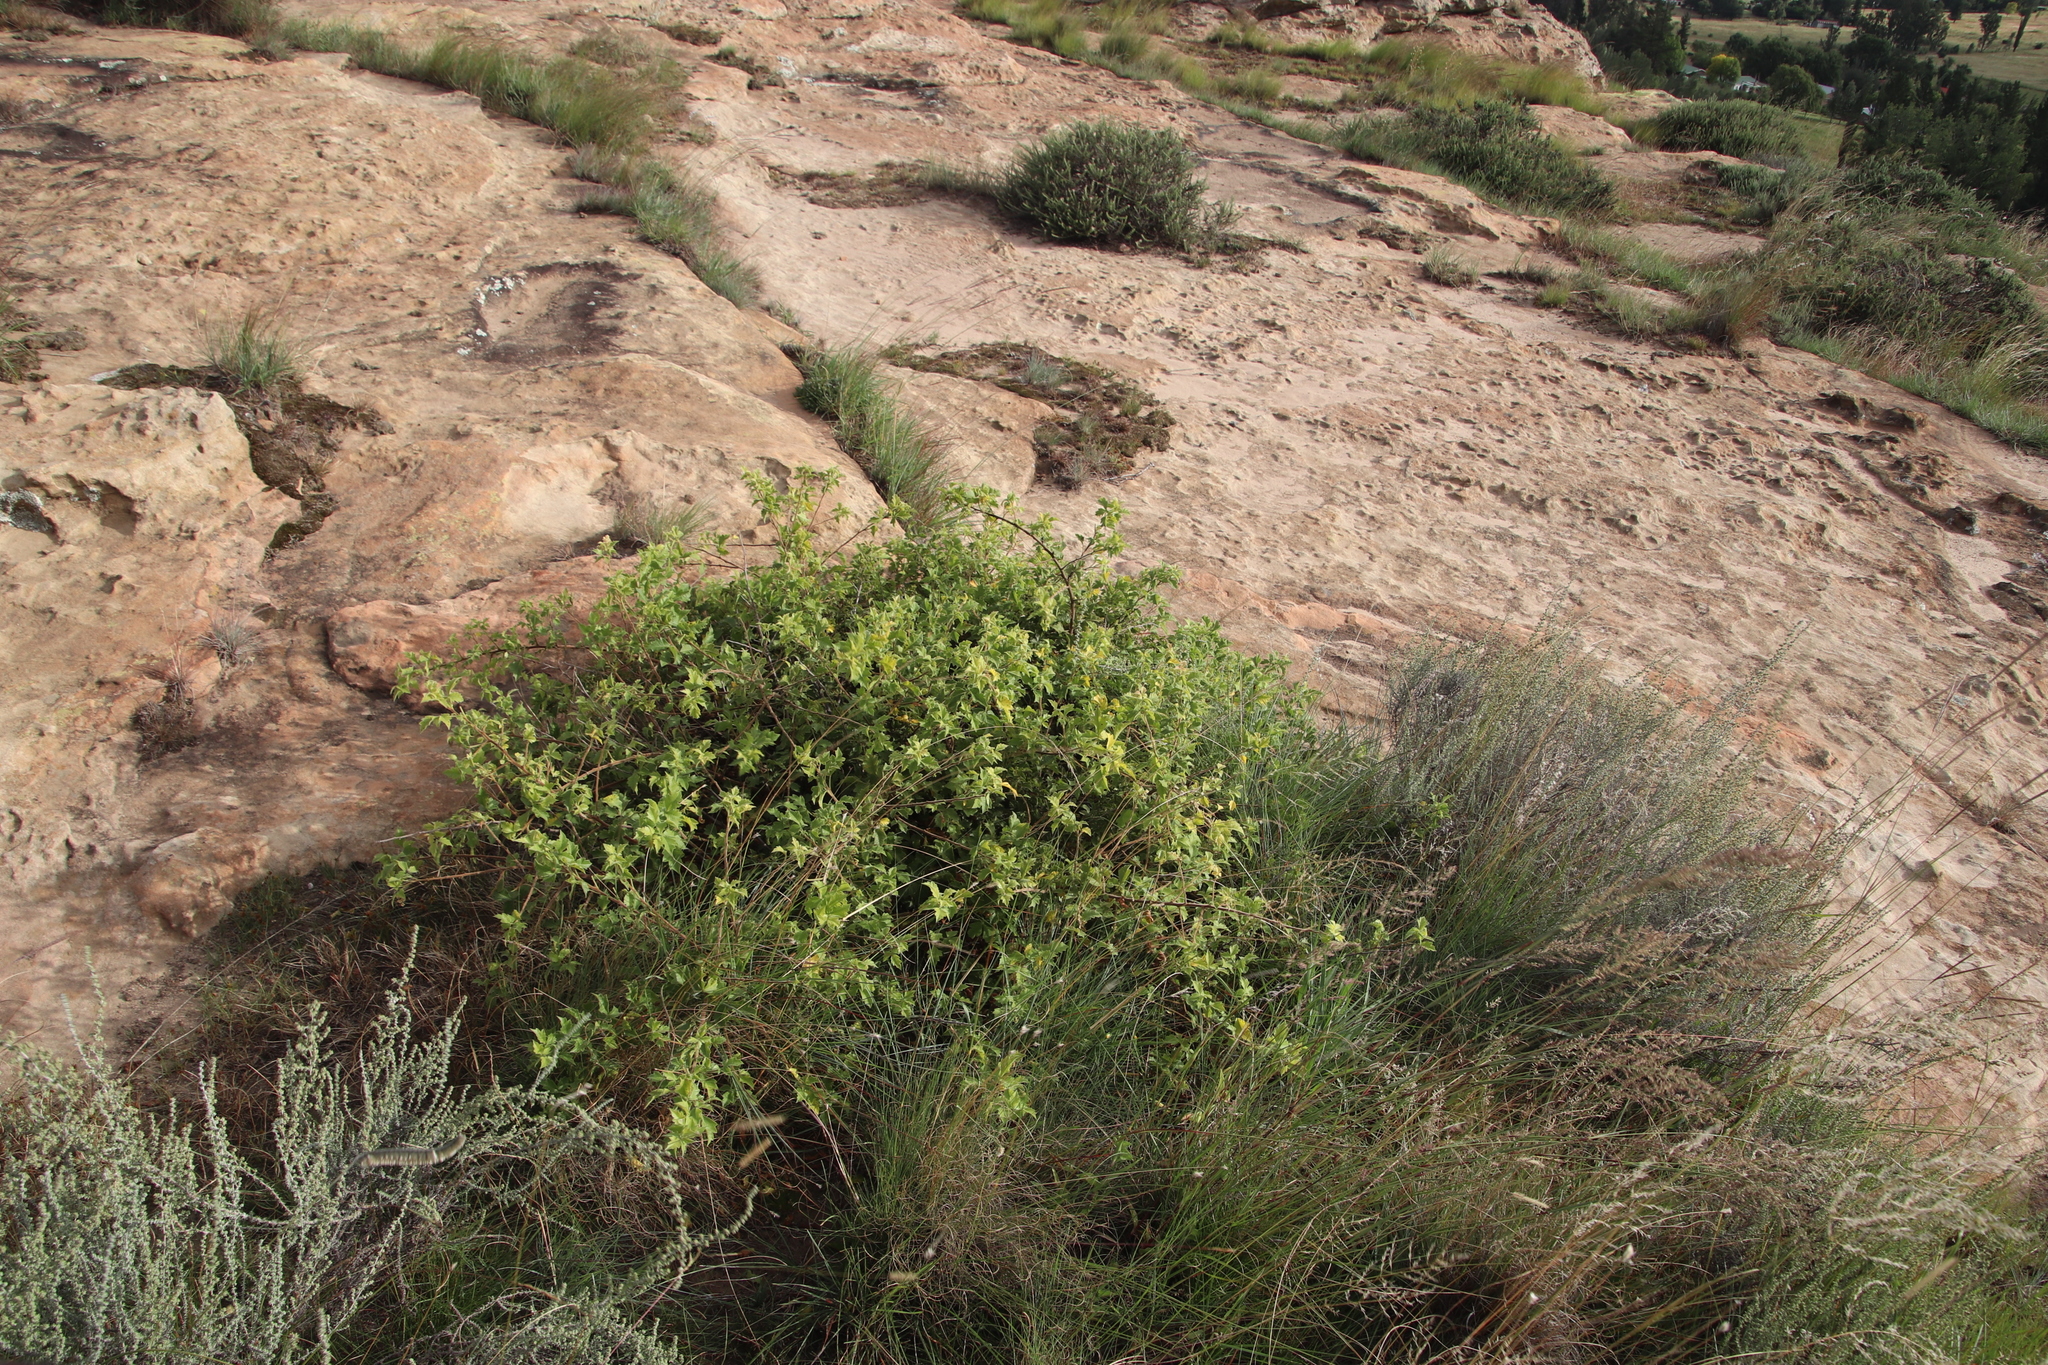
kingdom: Plantae
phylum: Tracheophyta
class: Magnoliopsida
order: Sapindales
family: Anacardiaceae
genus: Searsia
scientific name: Searsia dentata
